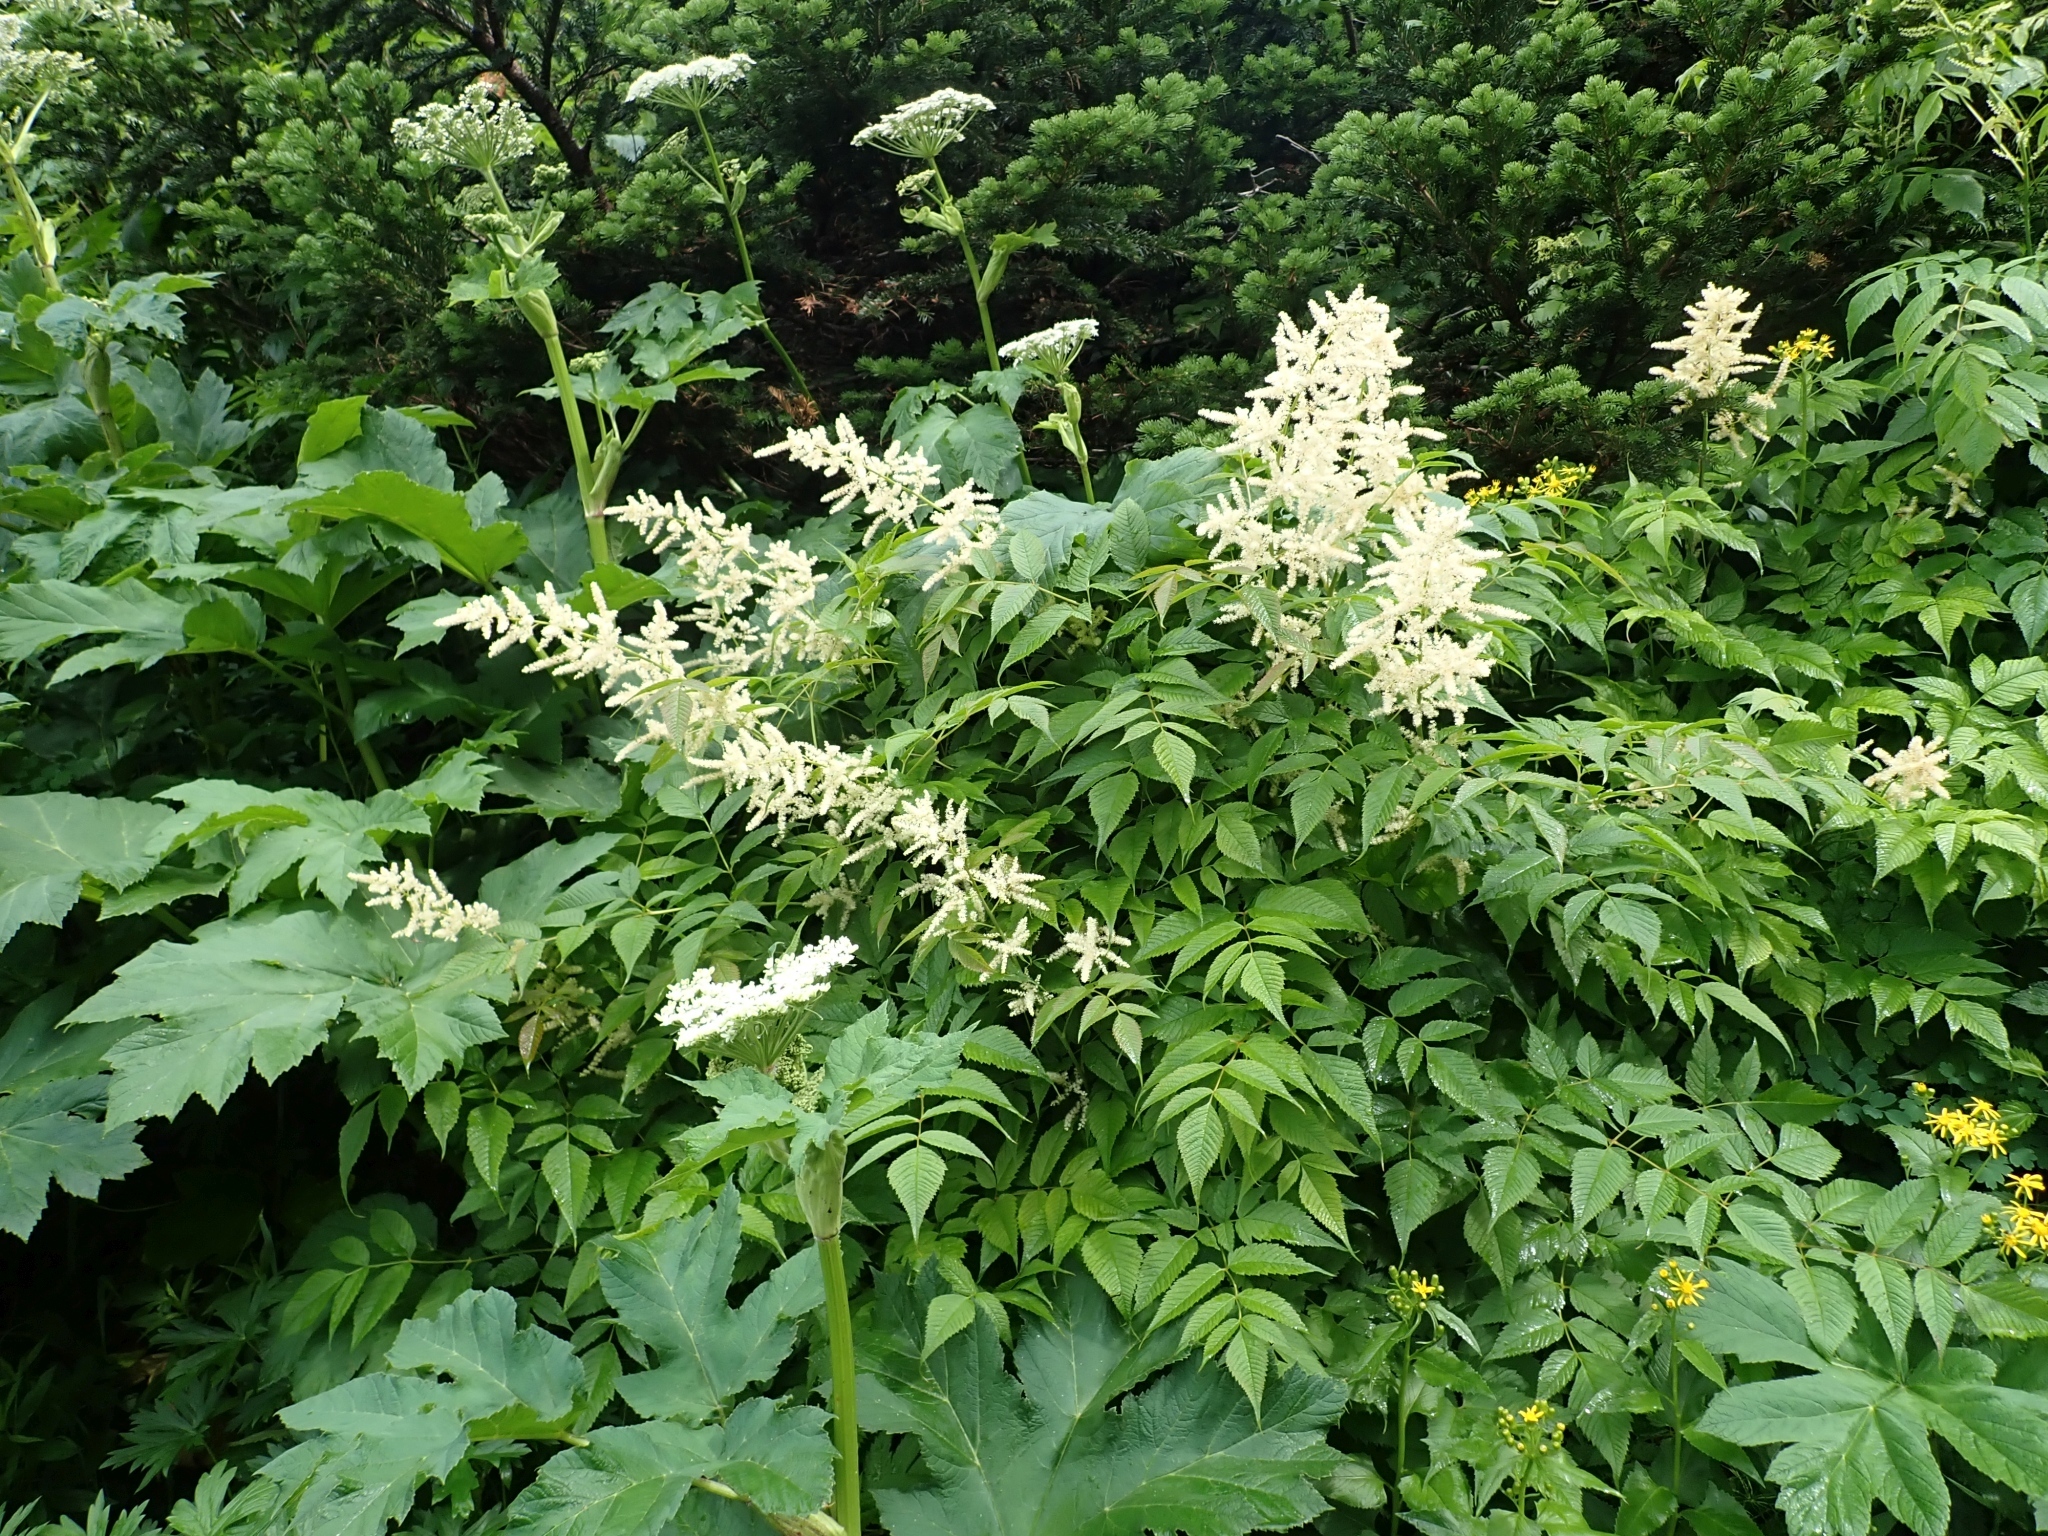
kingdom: Plantae
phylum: Tracheophyta
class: Magnoliopsida
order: Rosales
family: Rosaceae
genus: Aruncus
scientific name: Aruncus dioicus
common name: Buck's-beard
